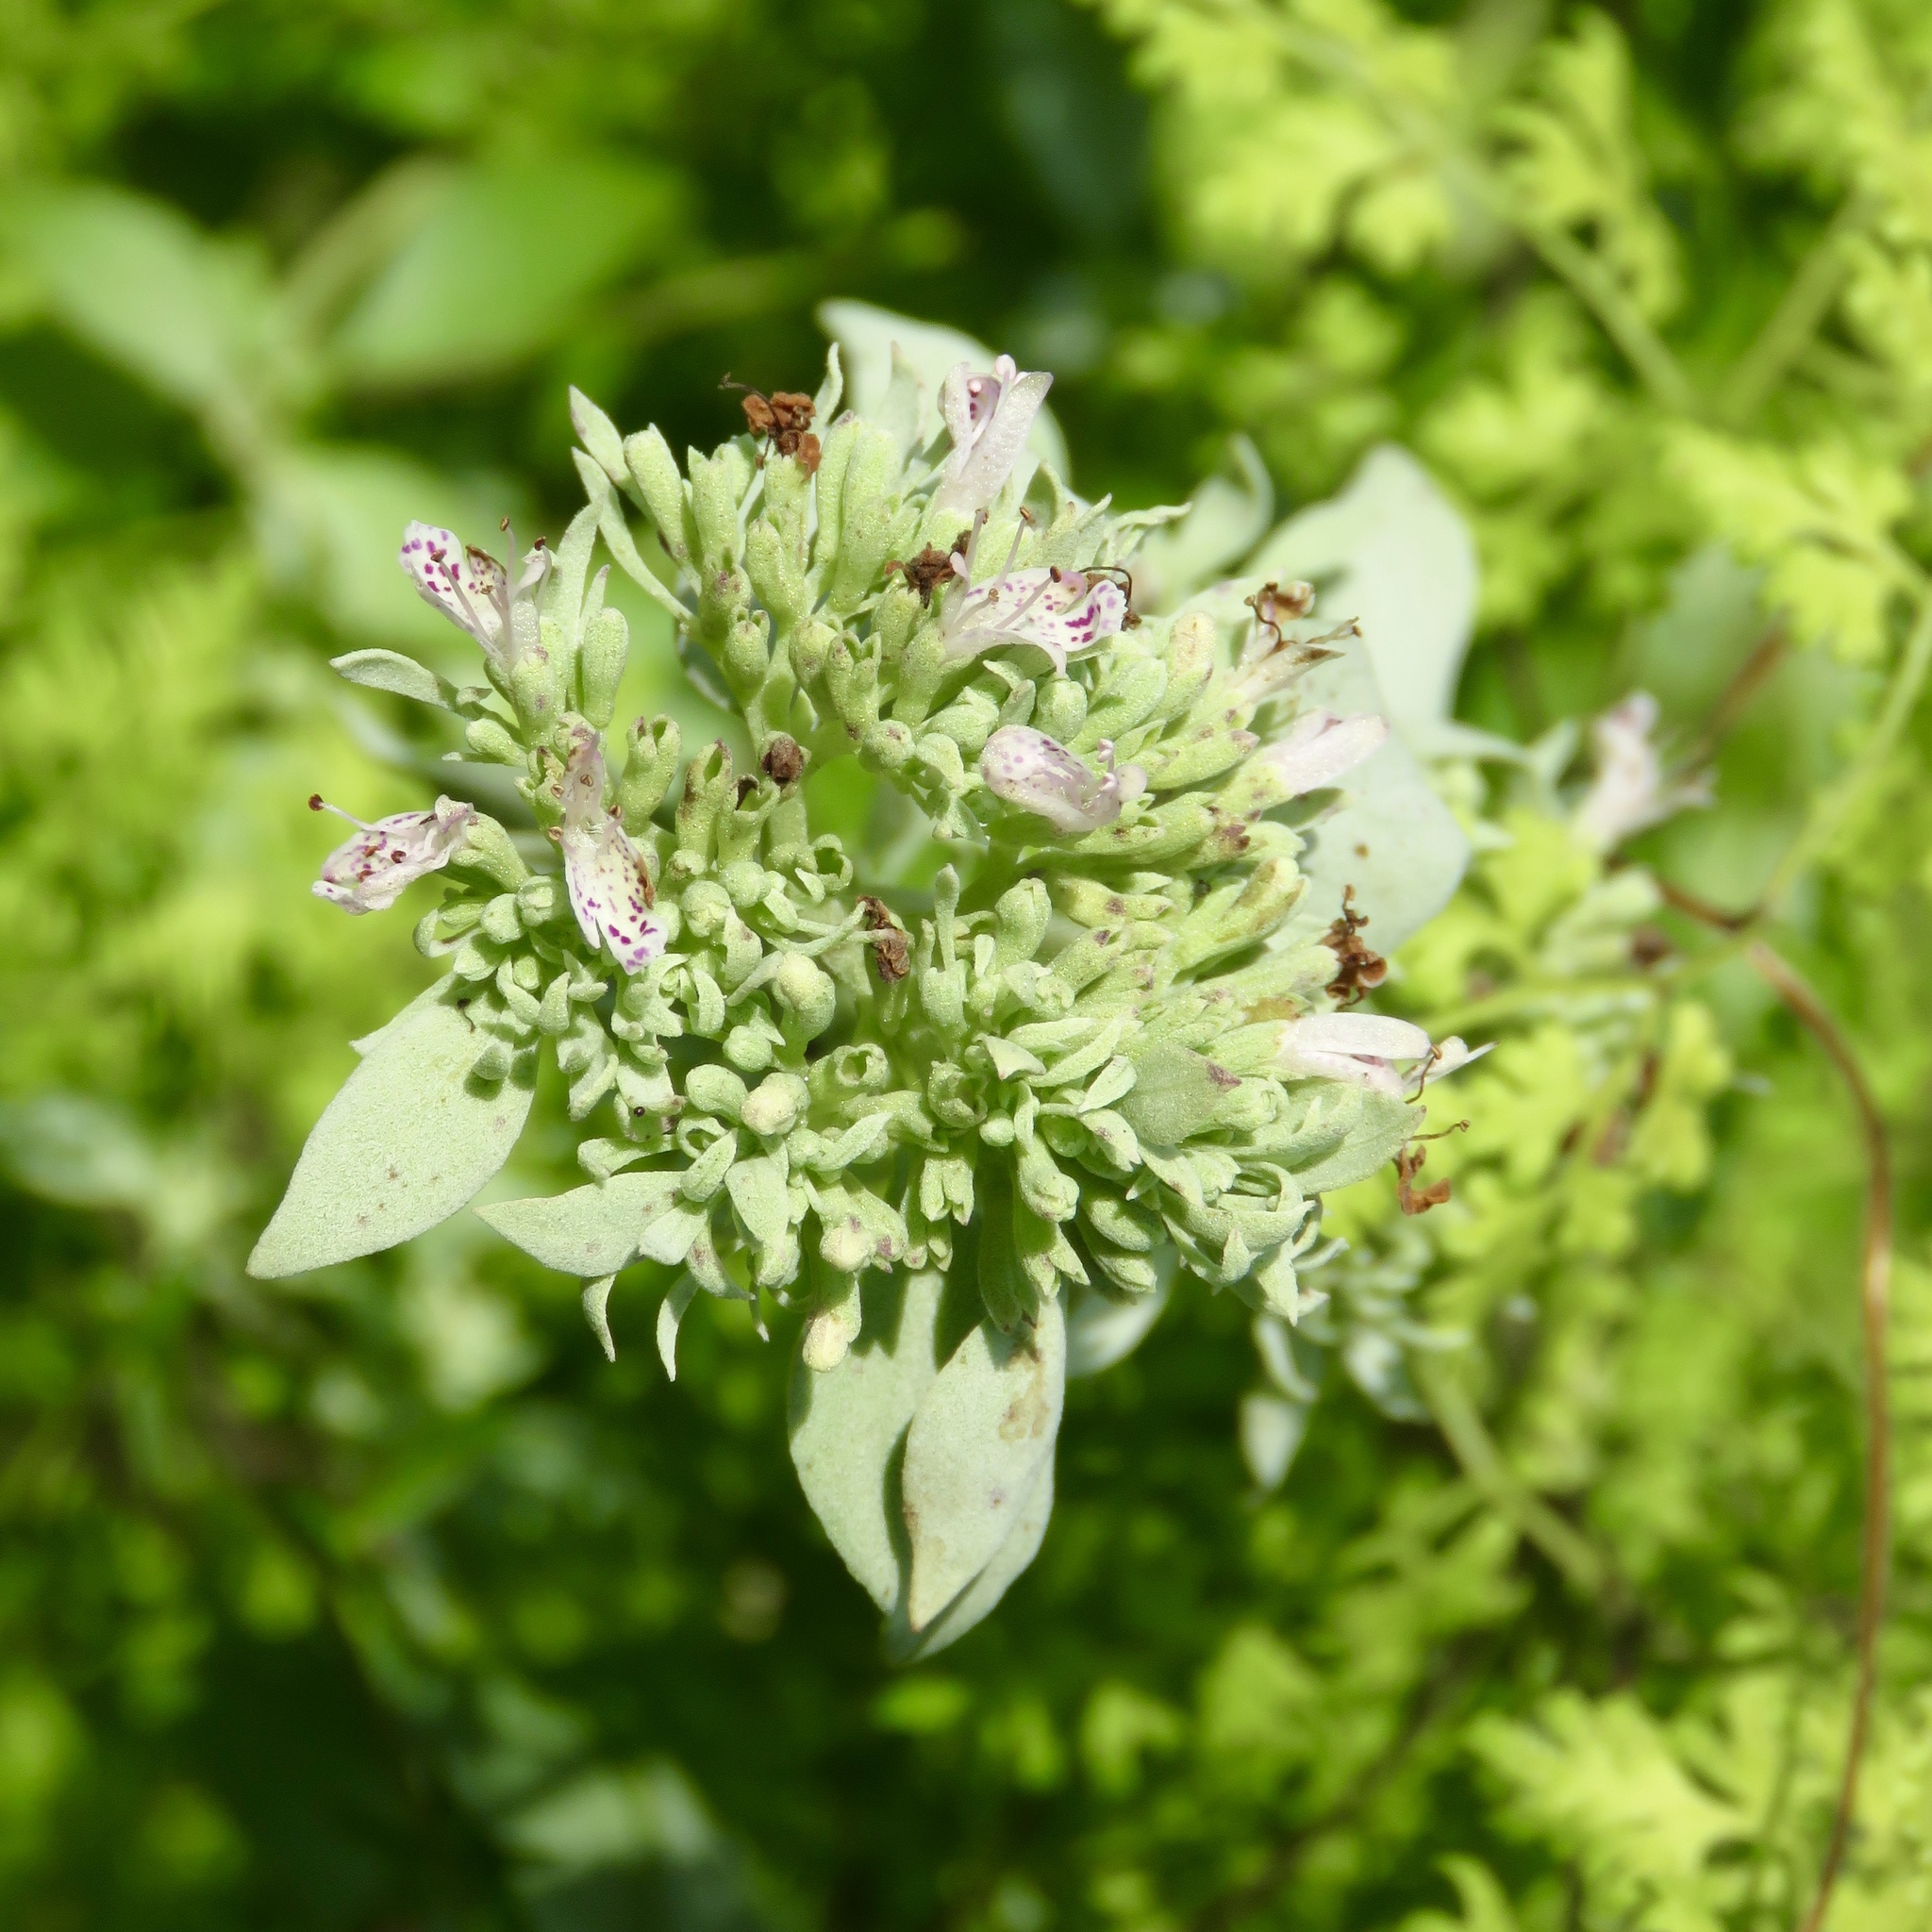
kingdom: Plantae
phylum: Tracheophyta
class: Magnoliopsida
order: Lamiales
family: Lamiaceae
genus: Pycnanthemum
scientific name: Pycnanthemum albescens
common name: White-leaf mountain-mint
